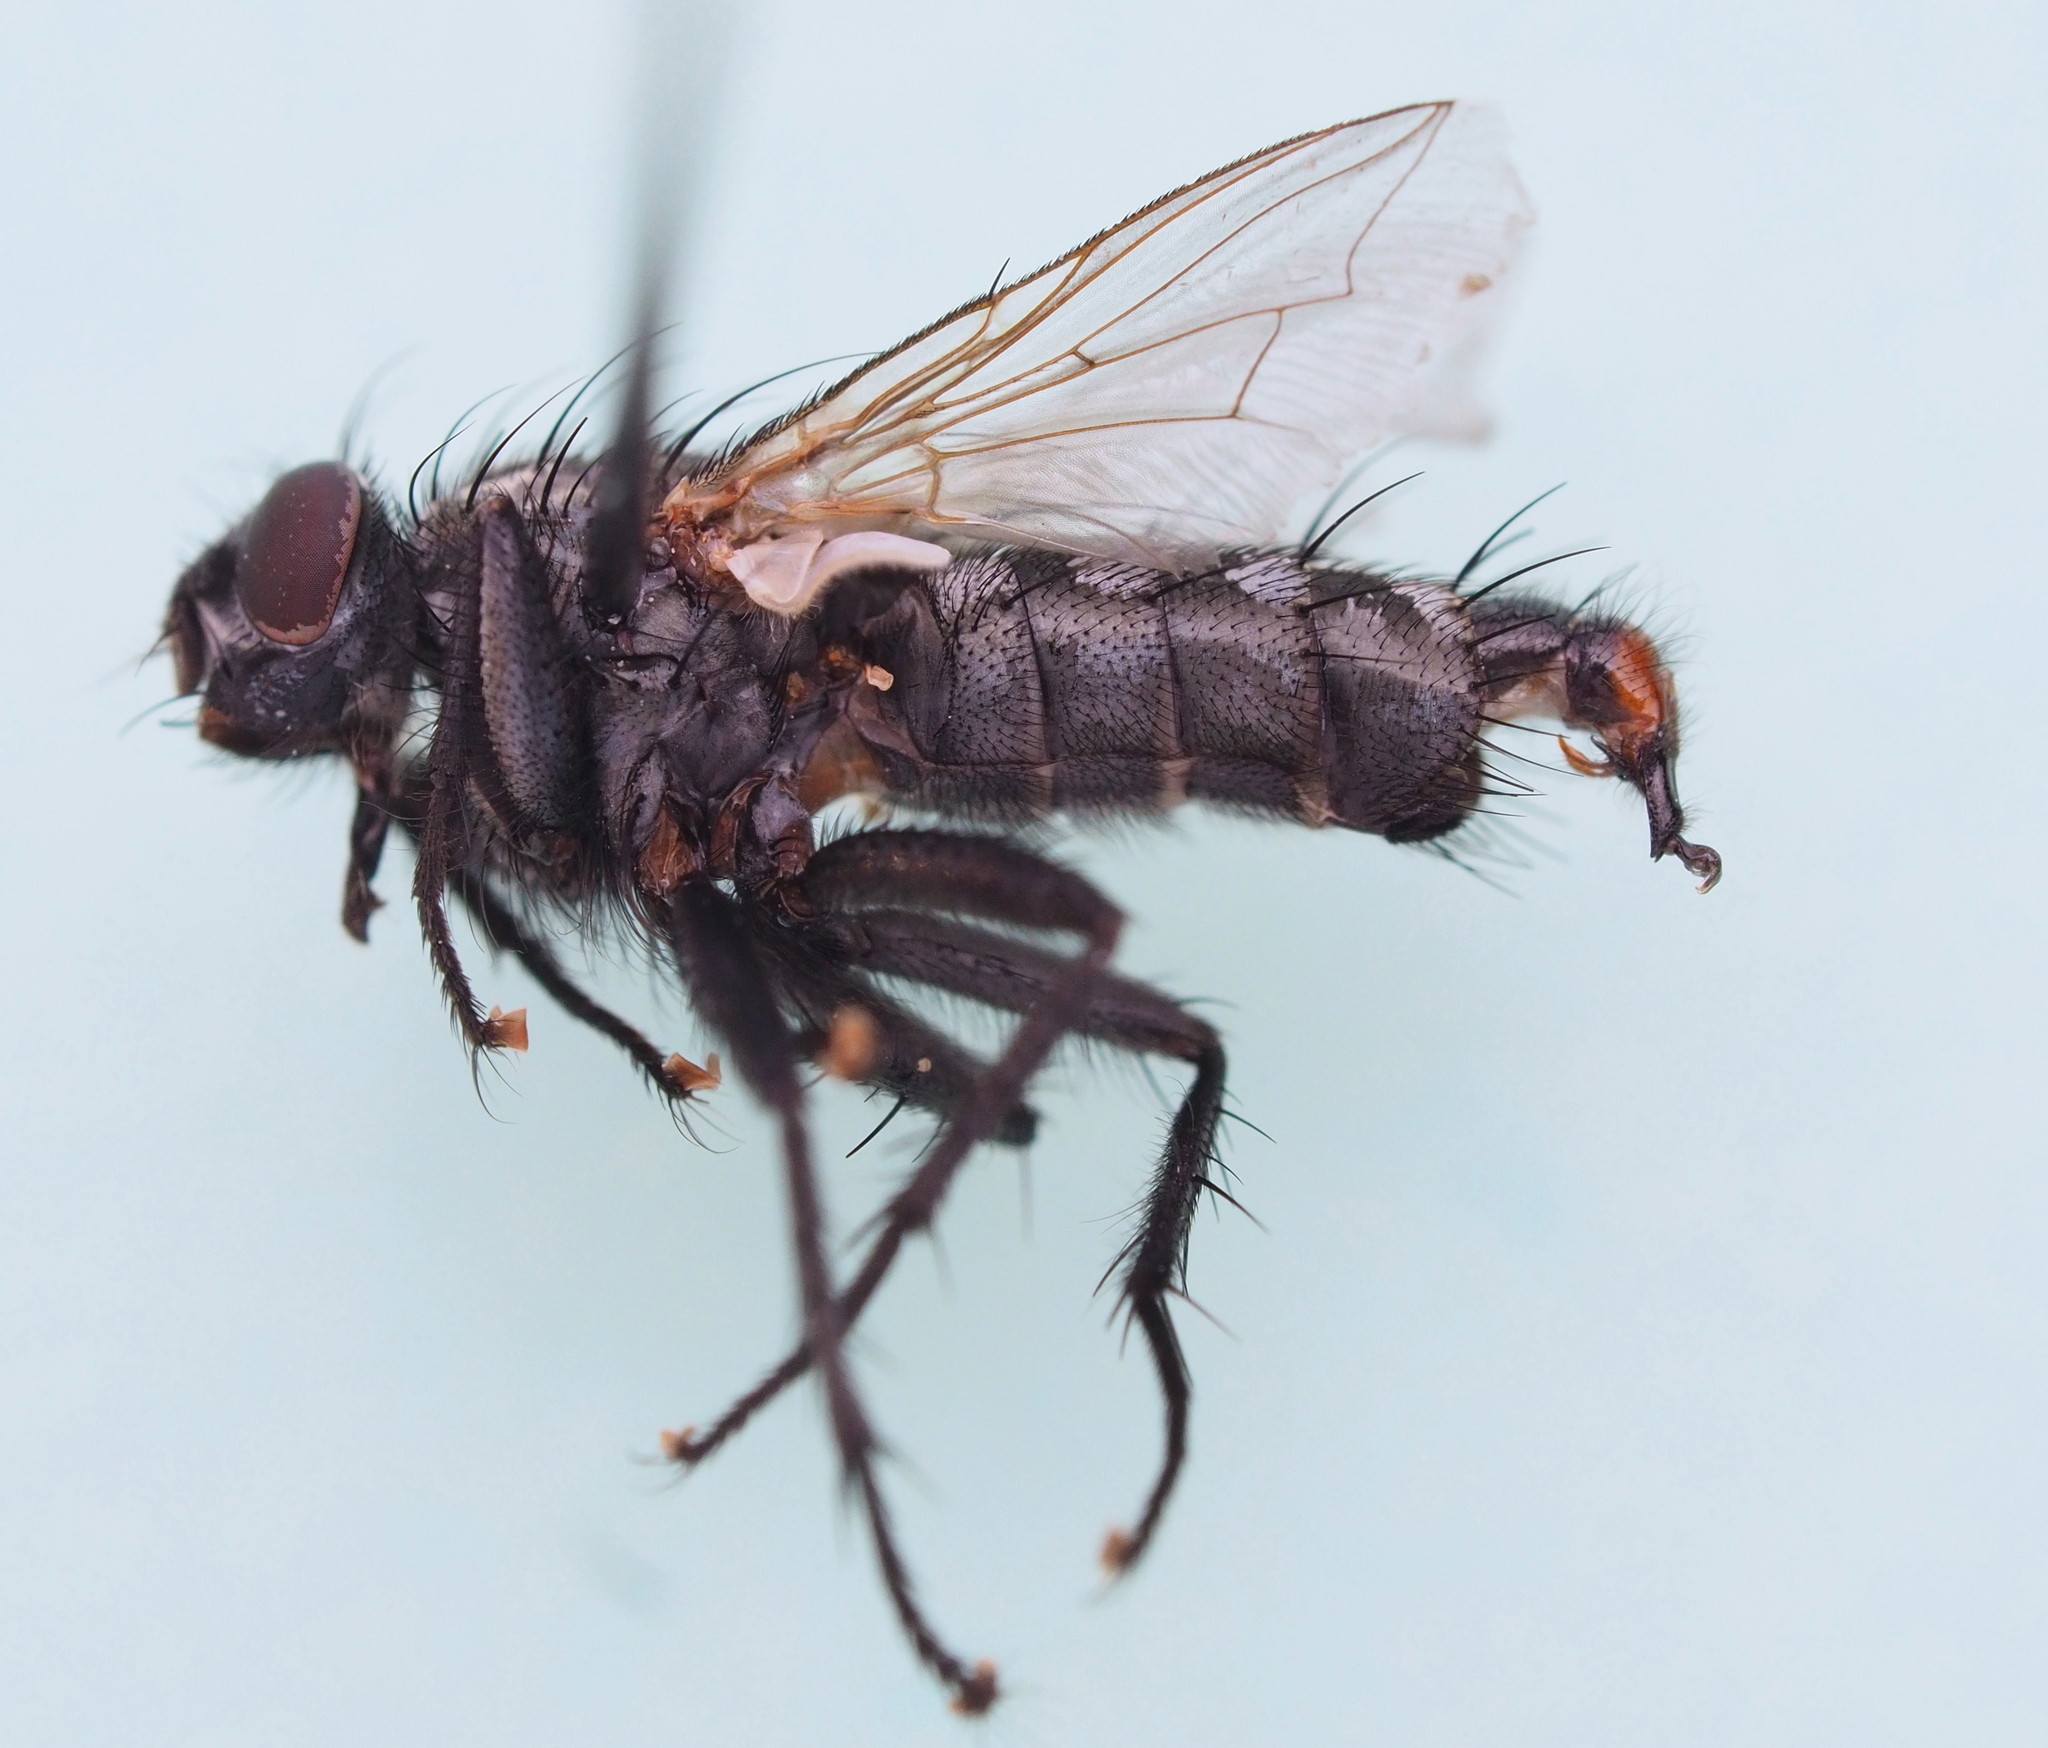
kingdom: Animalia
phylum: Arthropoda
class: Insecta
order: Diptera
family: Sarcophagidae
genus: Sarcophaga
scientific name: Sarcophaga filia
